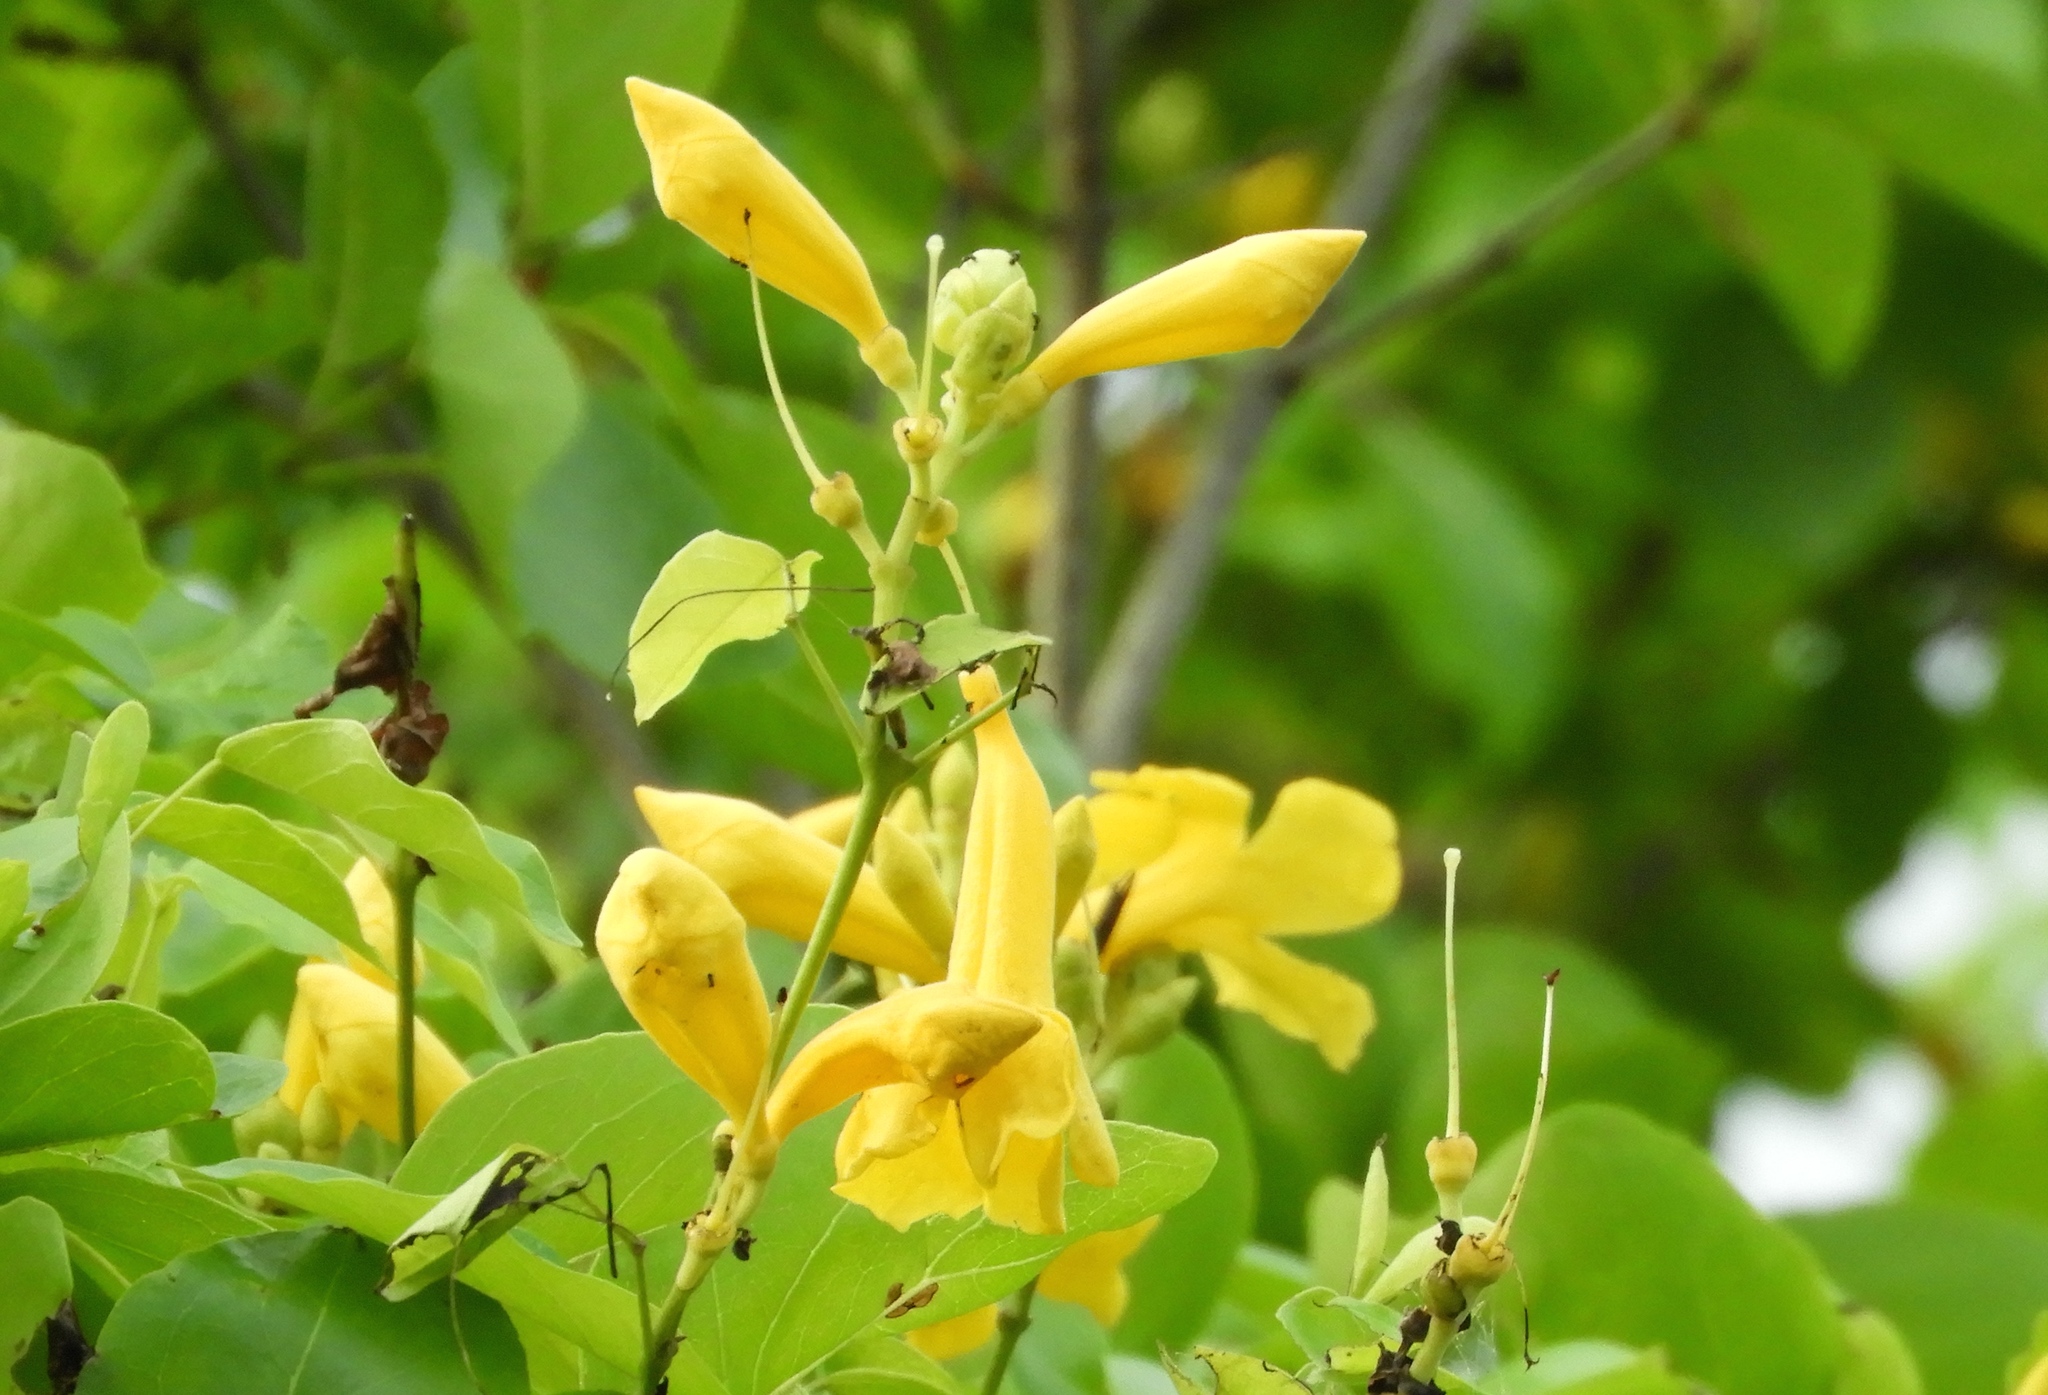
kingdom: Plantae
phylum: Tracheophyta
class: Magnoliopsida
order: Lamiales
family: Bignoniaceae
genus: Adenocalymma
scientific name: Adenocalymma inundatum
